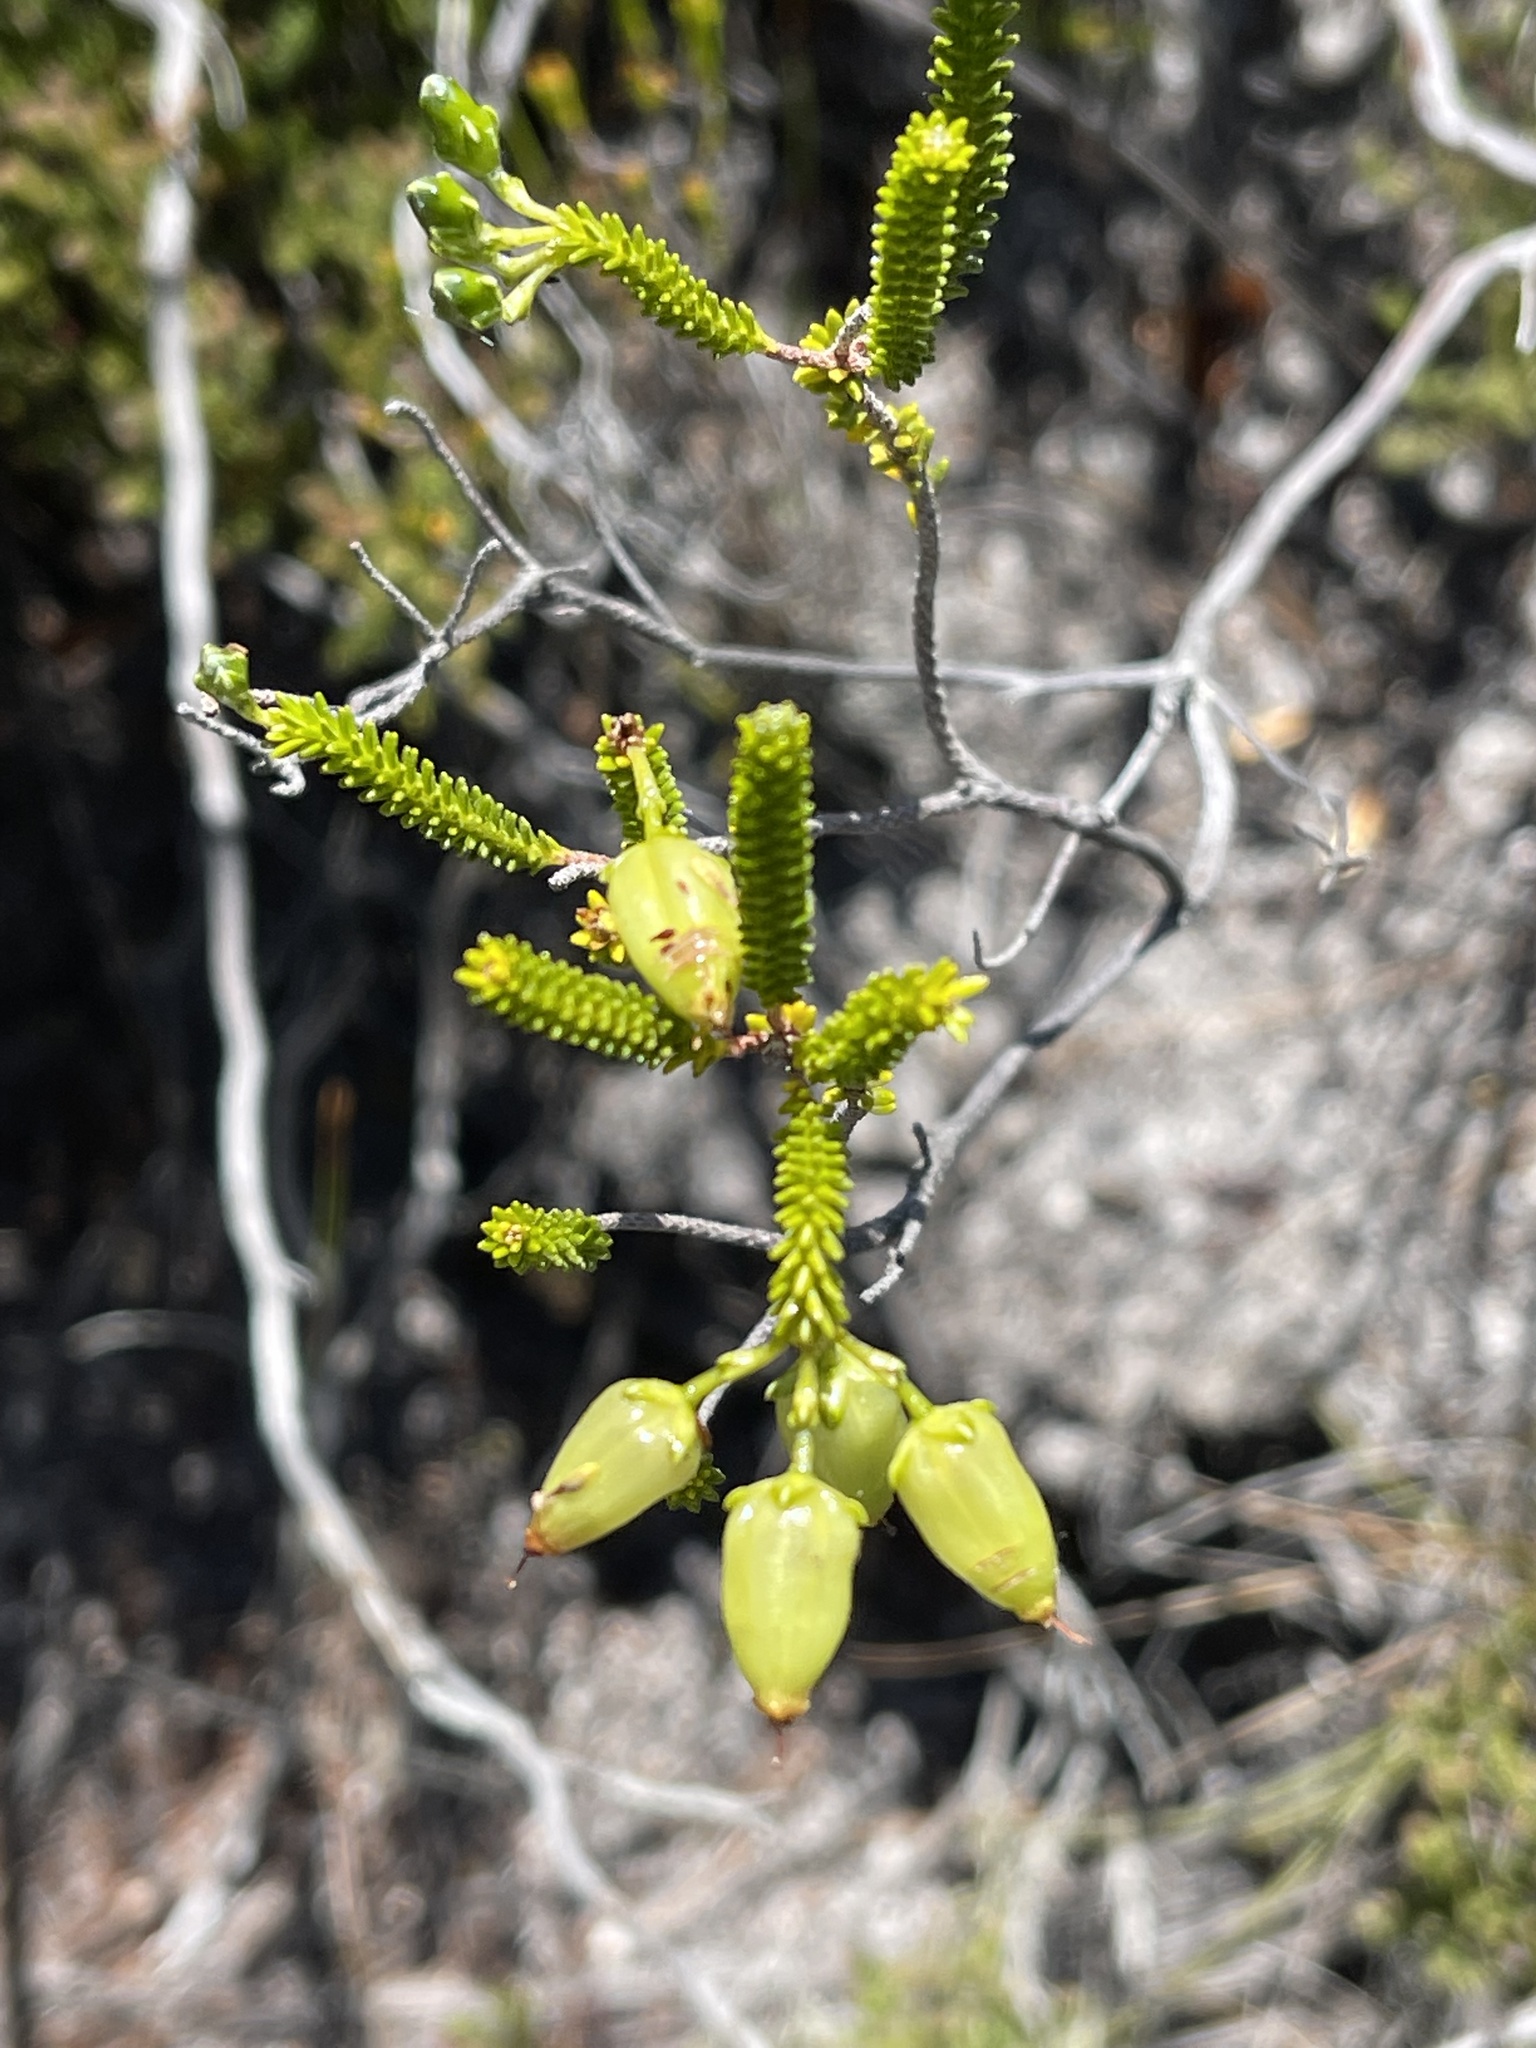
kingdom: Plantae
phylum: Tracheophyta
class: Magnoliopsida
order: Ericales
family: Ericaceae
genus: Erica
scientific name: Erica urna-viridis
